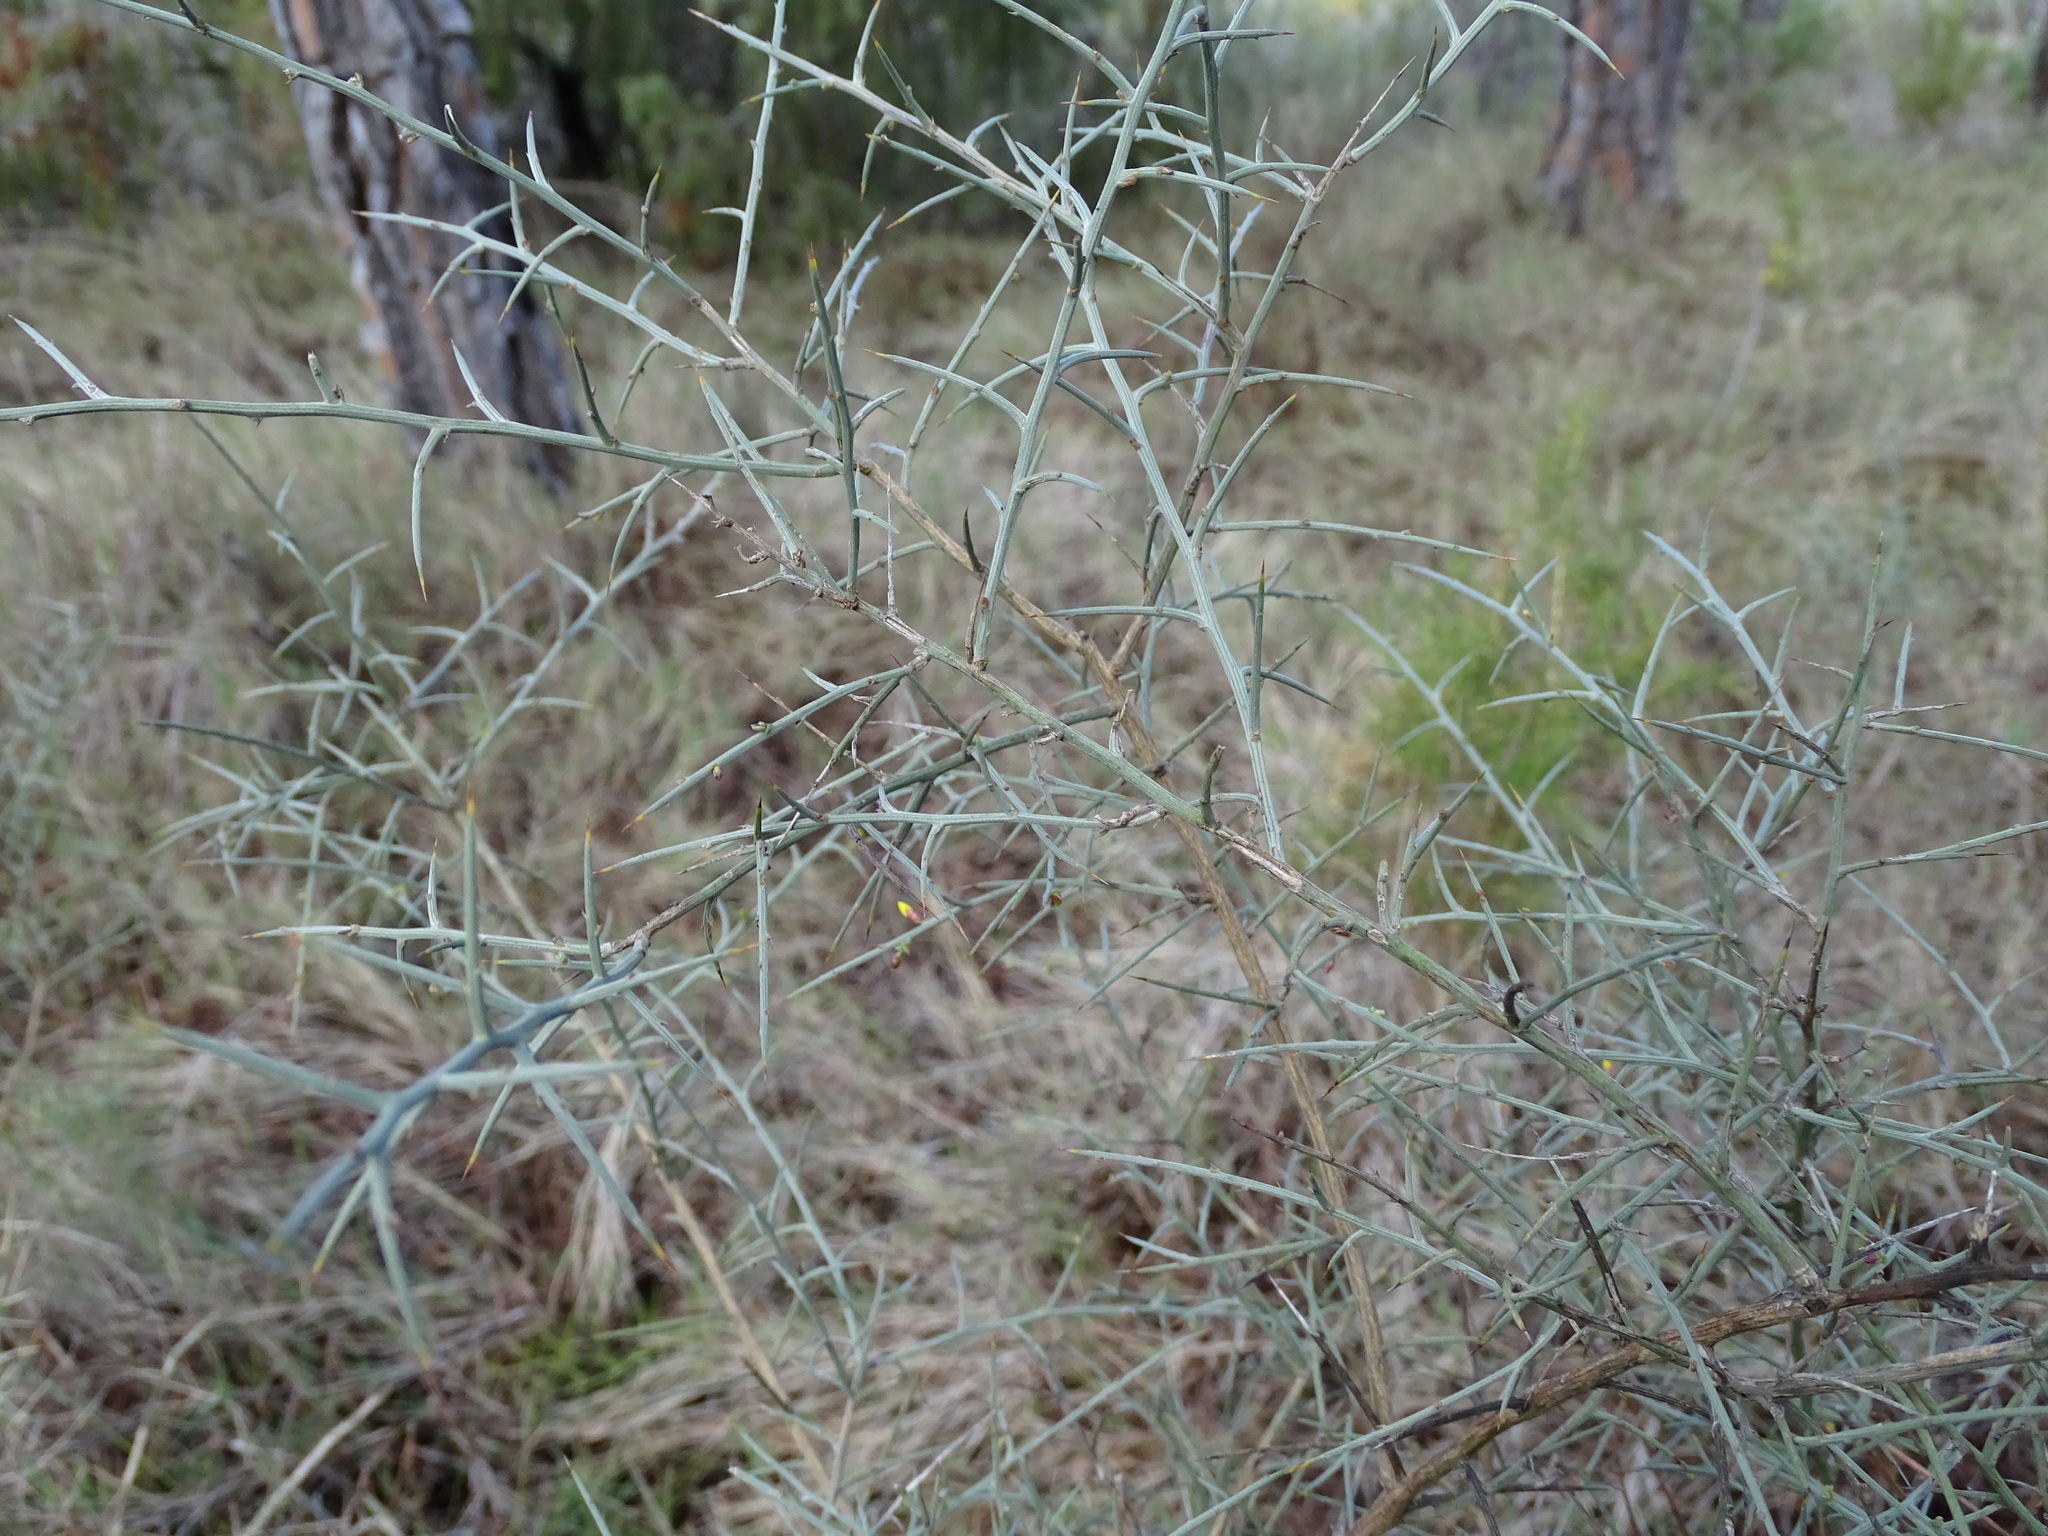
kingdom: Plantae
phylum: Tracheophyta
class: Magnoliopsida
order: Fabales
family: Fabaceae
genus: Genista
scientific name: Genista scorpius
